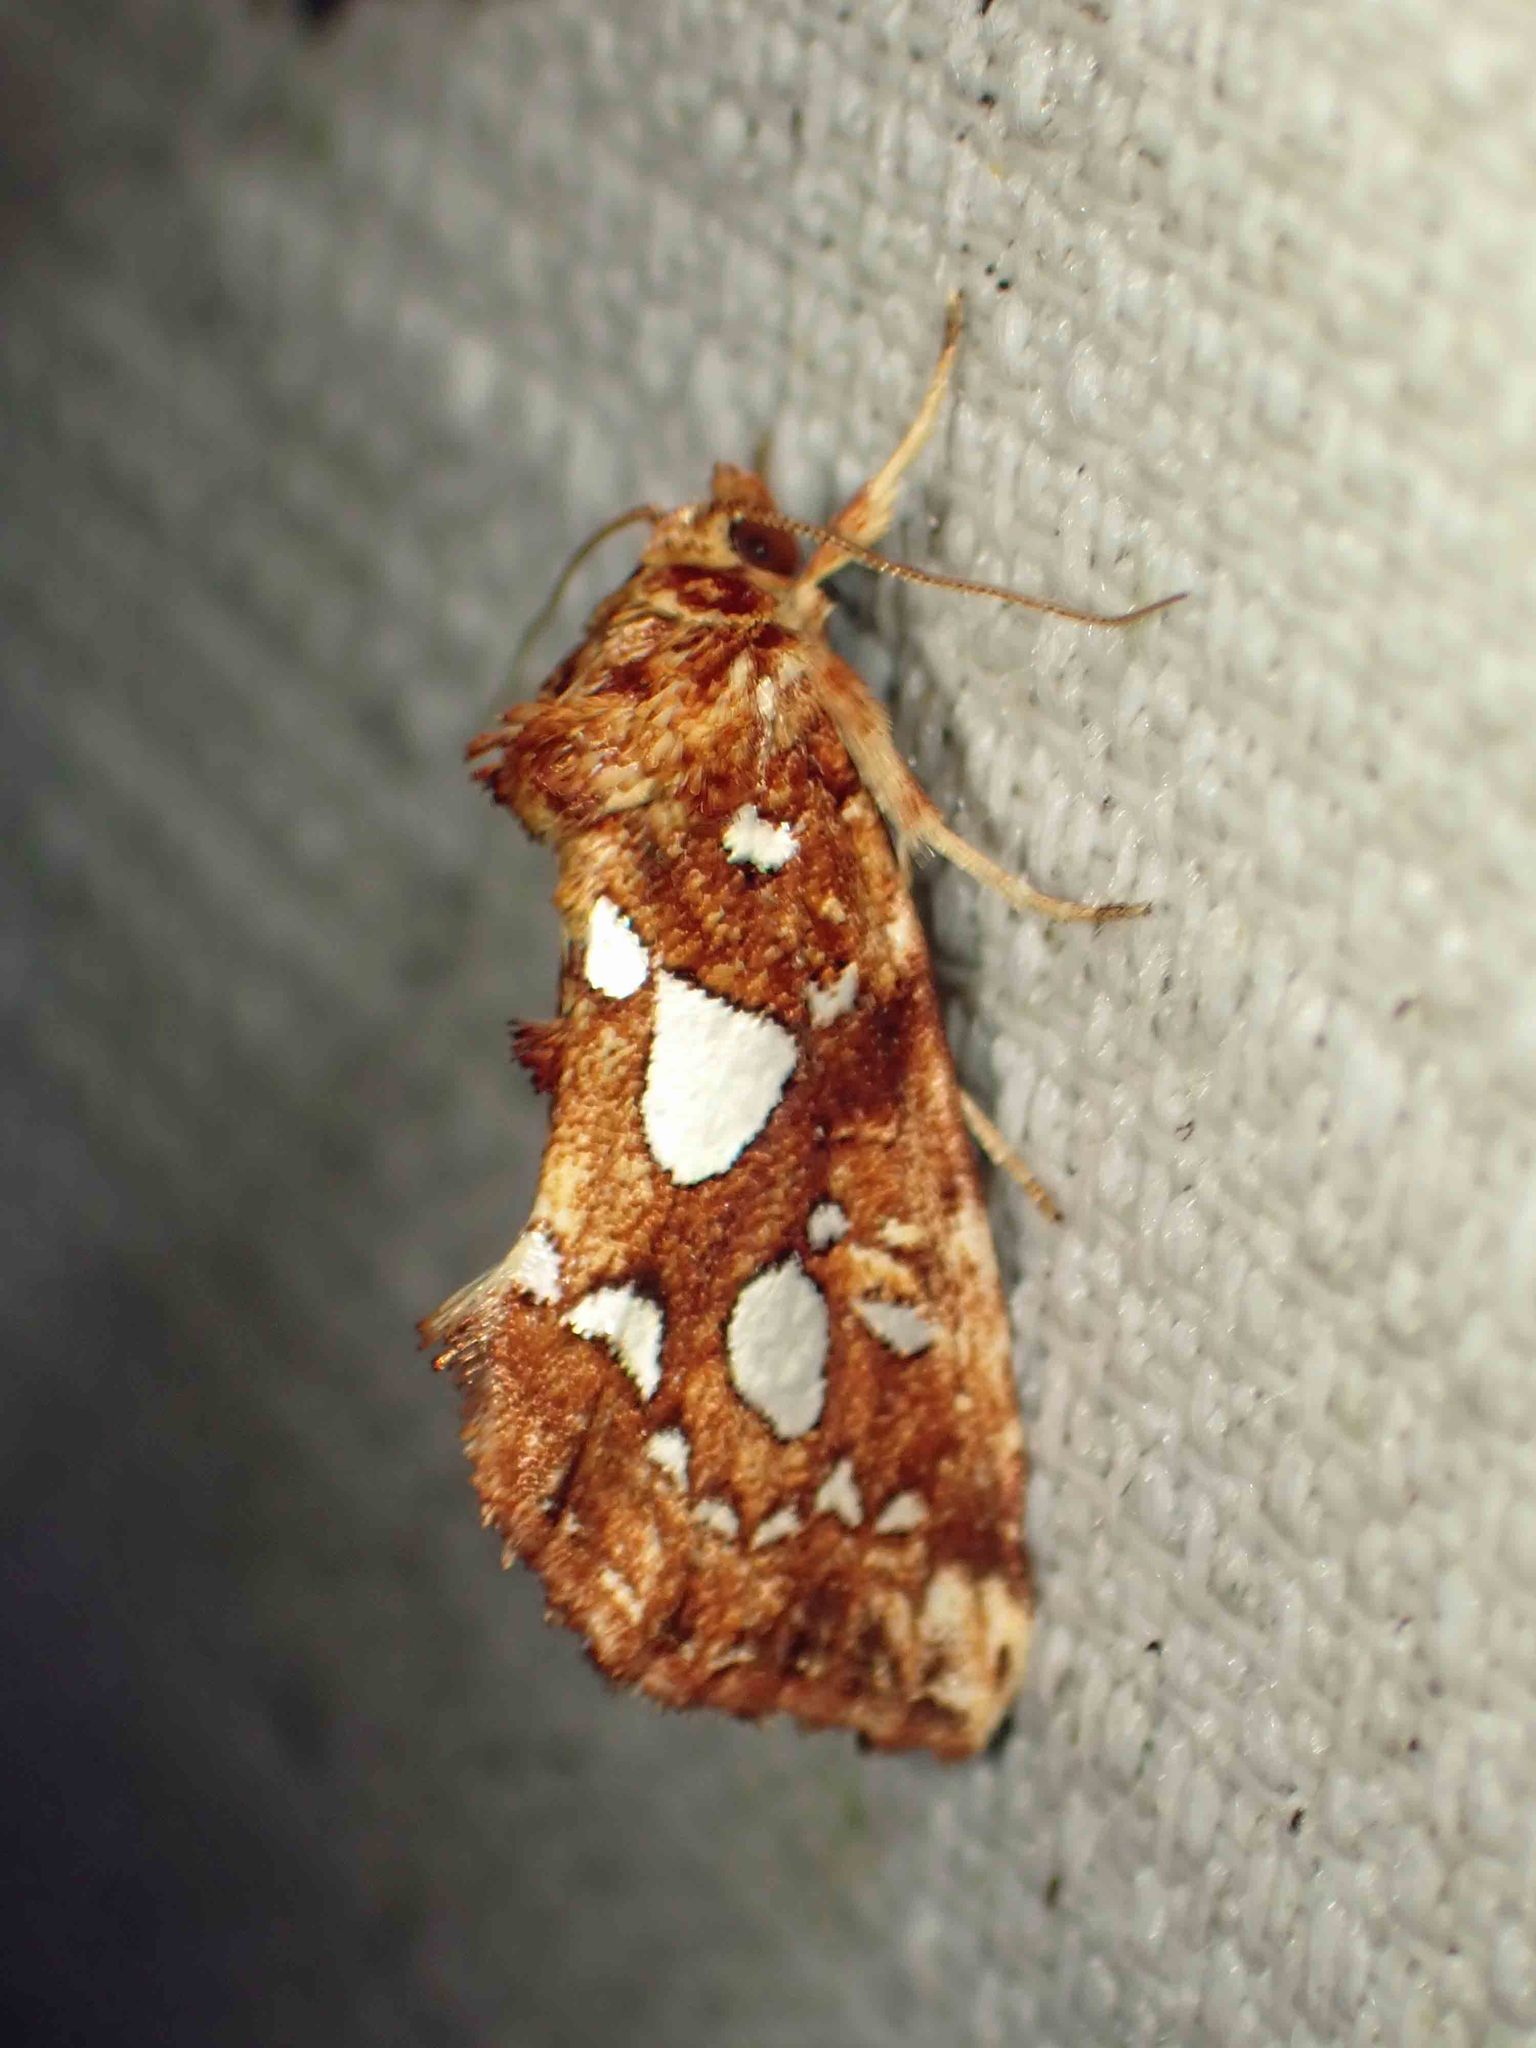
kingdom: Animalia
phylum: Arthropoda
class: Insecta
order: Lepidoptera
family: Noctuidae
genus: Callopistria
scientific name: Callopistria cordata
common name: Silver-spotted fern moth
